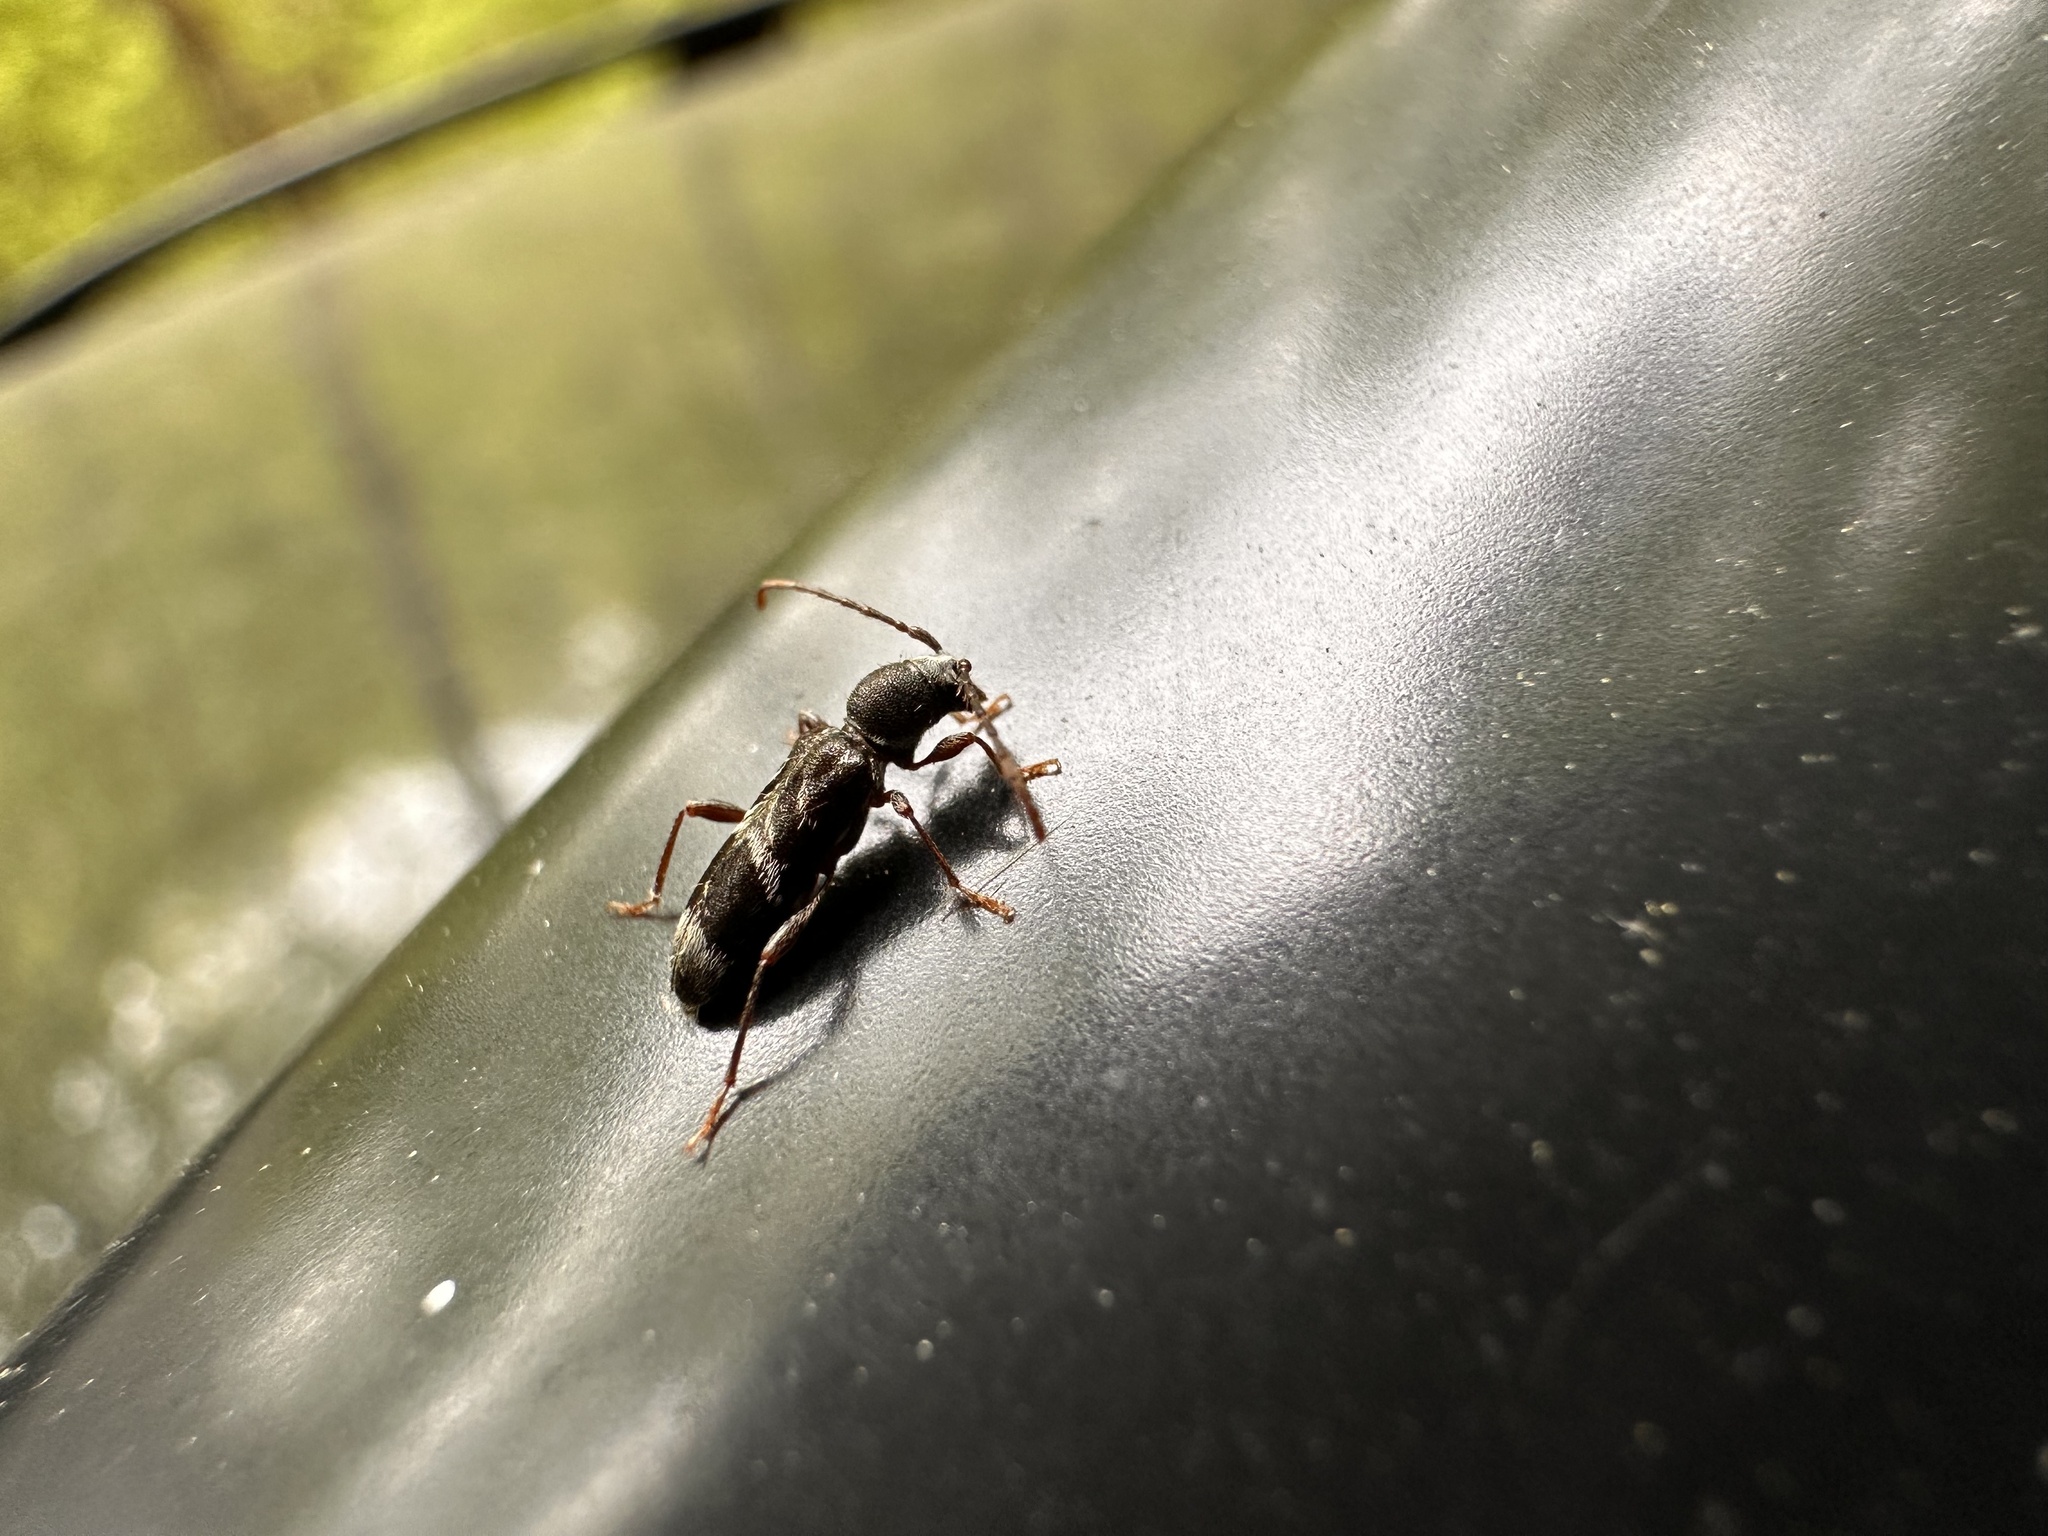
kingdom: Animalia
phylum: Arthropoda
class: Insecta
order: Coleoptera
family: Cerambycidae
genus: Oligoenoplus
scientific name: Oligoenoplus compressicollis
